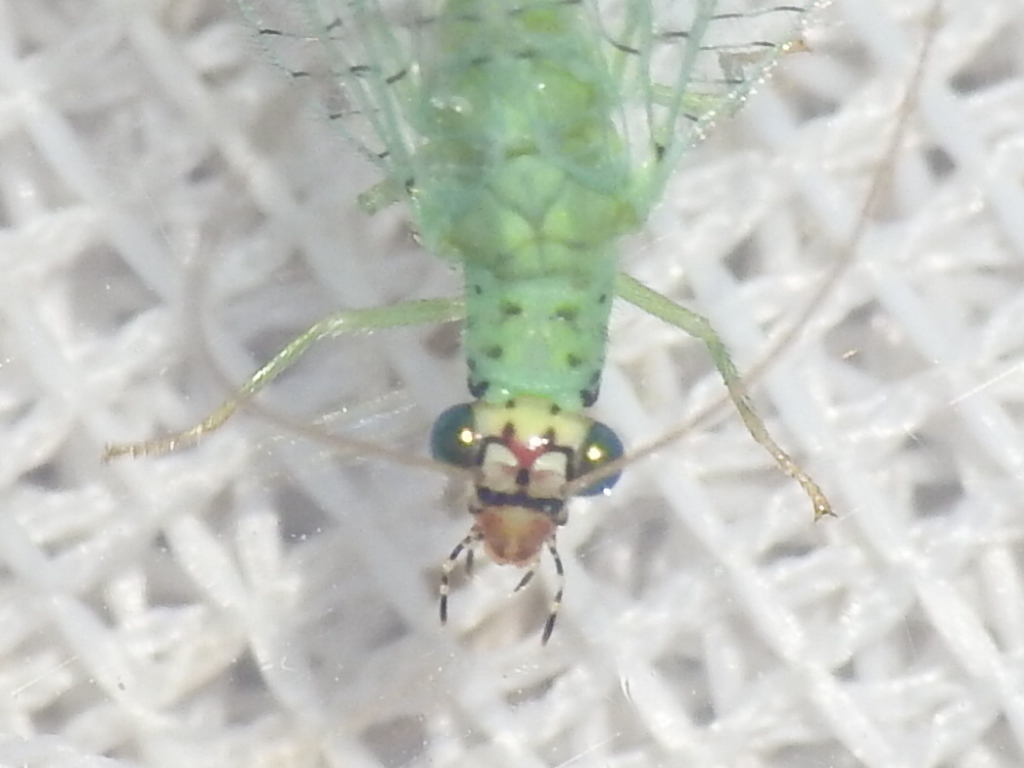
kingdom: Animalia
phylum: Arthropoda
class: Insecta
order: Neuroptera
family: Chrysopidae
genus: Chrysopa
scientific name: Chrysopa oculata
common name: Golden-eyed lacewing
